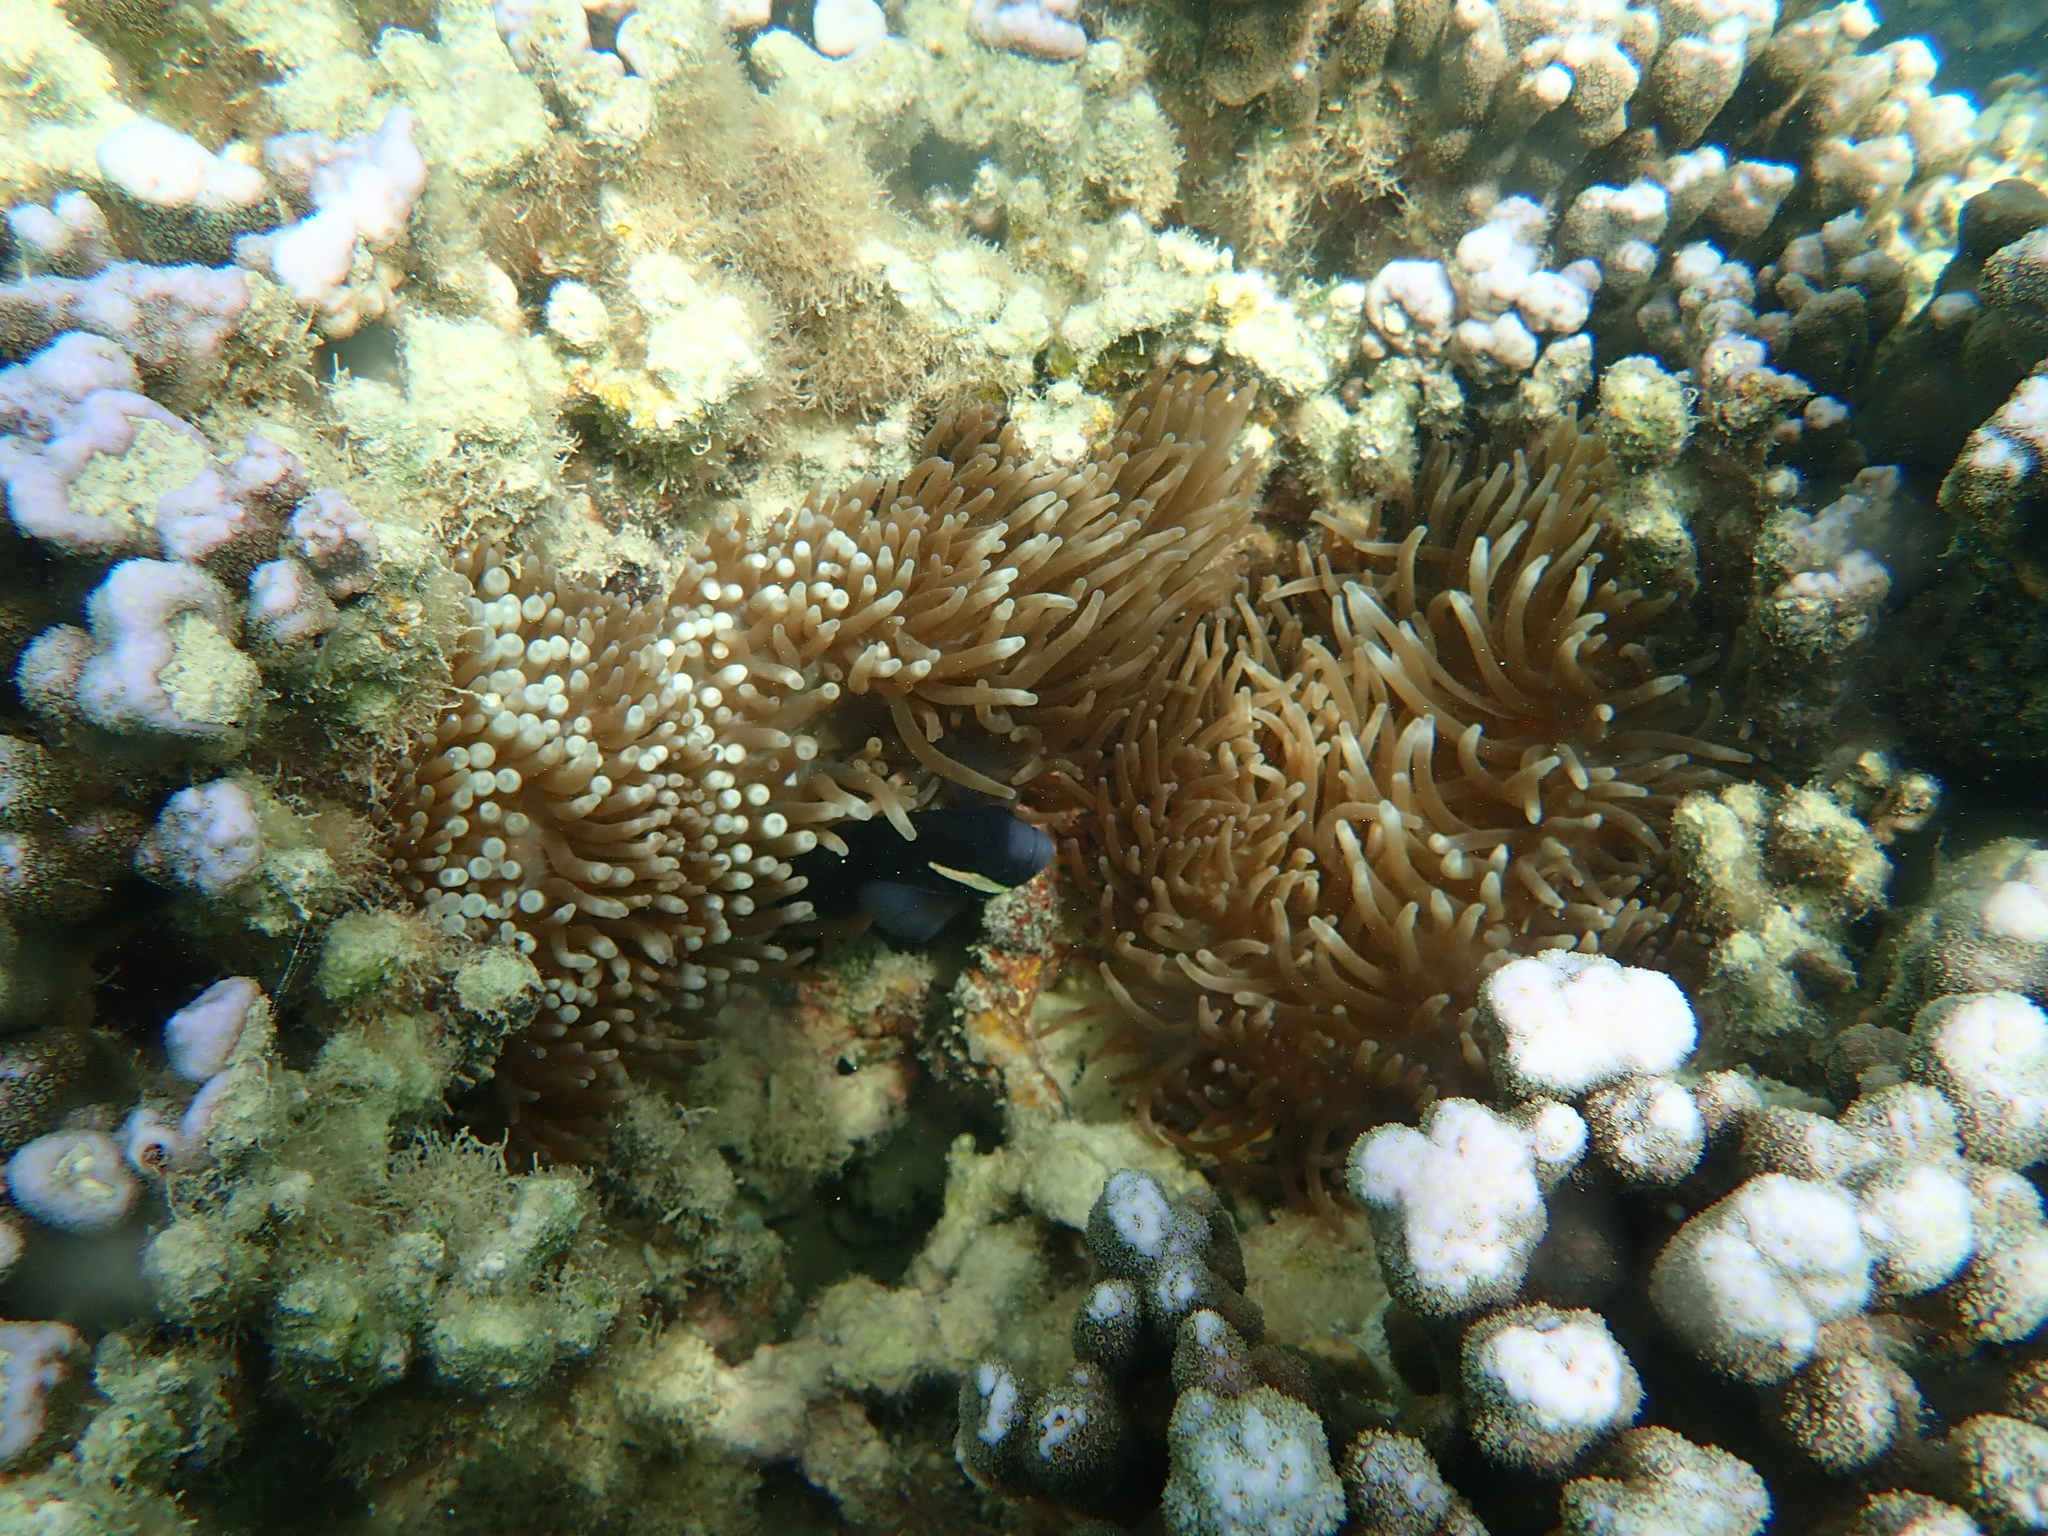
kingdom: Animalia
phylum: Cnidaria
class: Anthozoa
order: Actiniaria
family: Actiniidae
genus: Entacmaea
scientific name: Entacmaea quadricolor
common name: Bulb tentacle sea anemone
